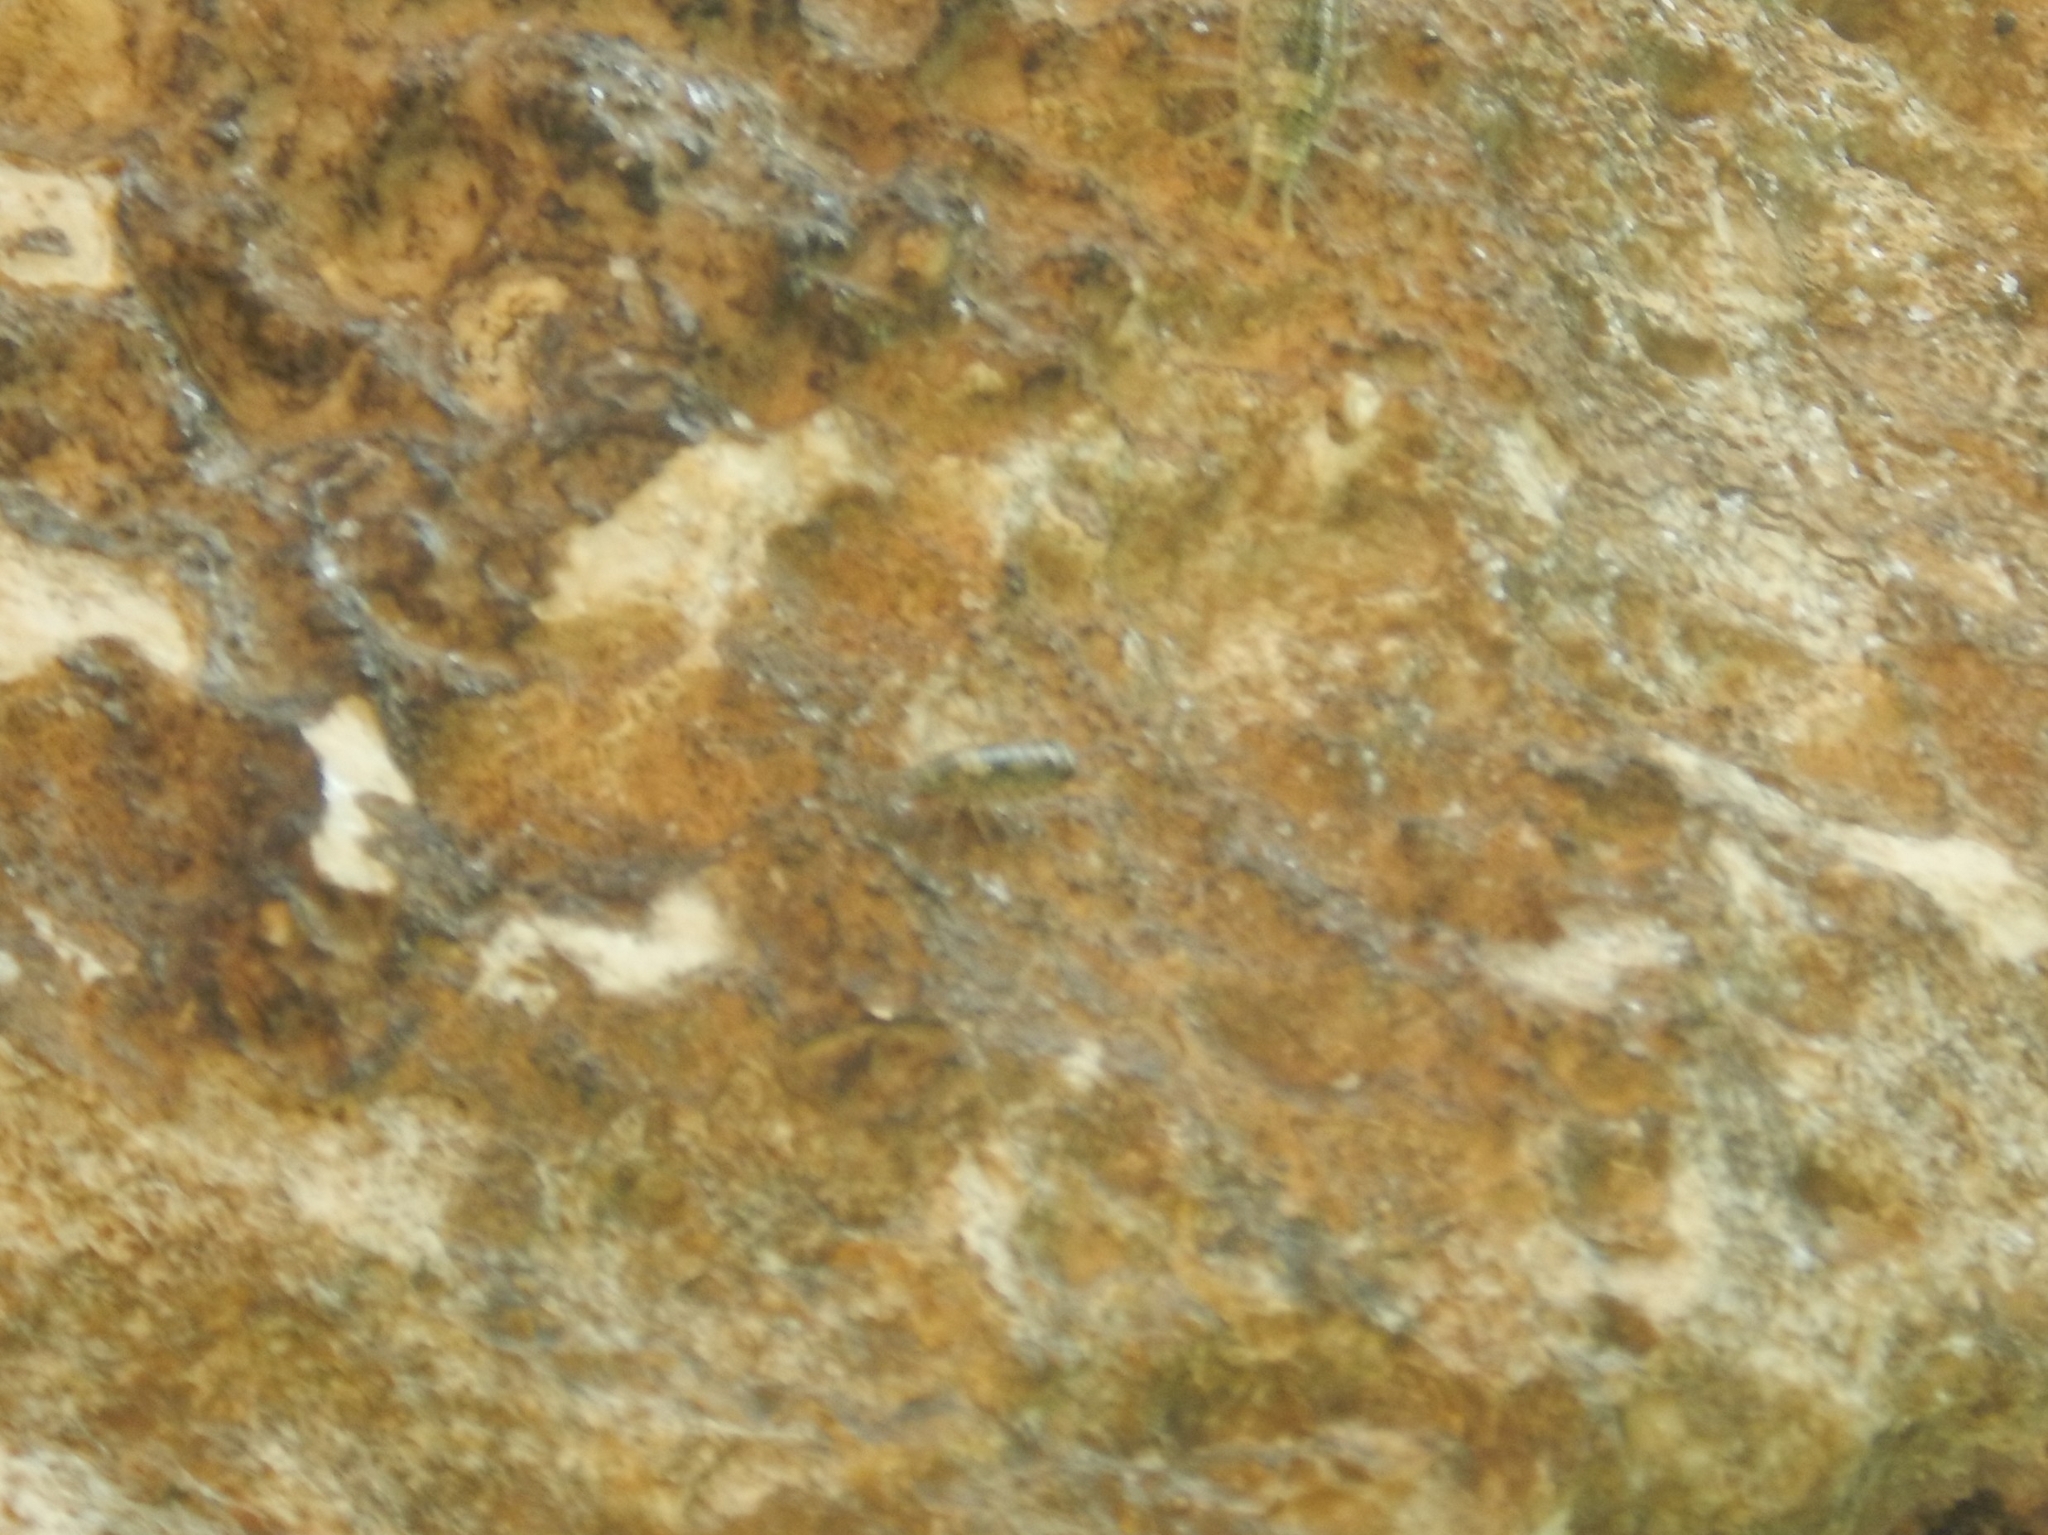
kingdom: Animalia
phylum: Arthropoda
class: Malacostraca
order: Isopoda
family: Ligiidae
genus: Ligia
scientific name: Ligia italica
